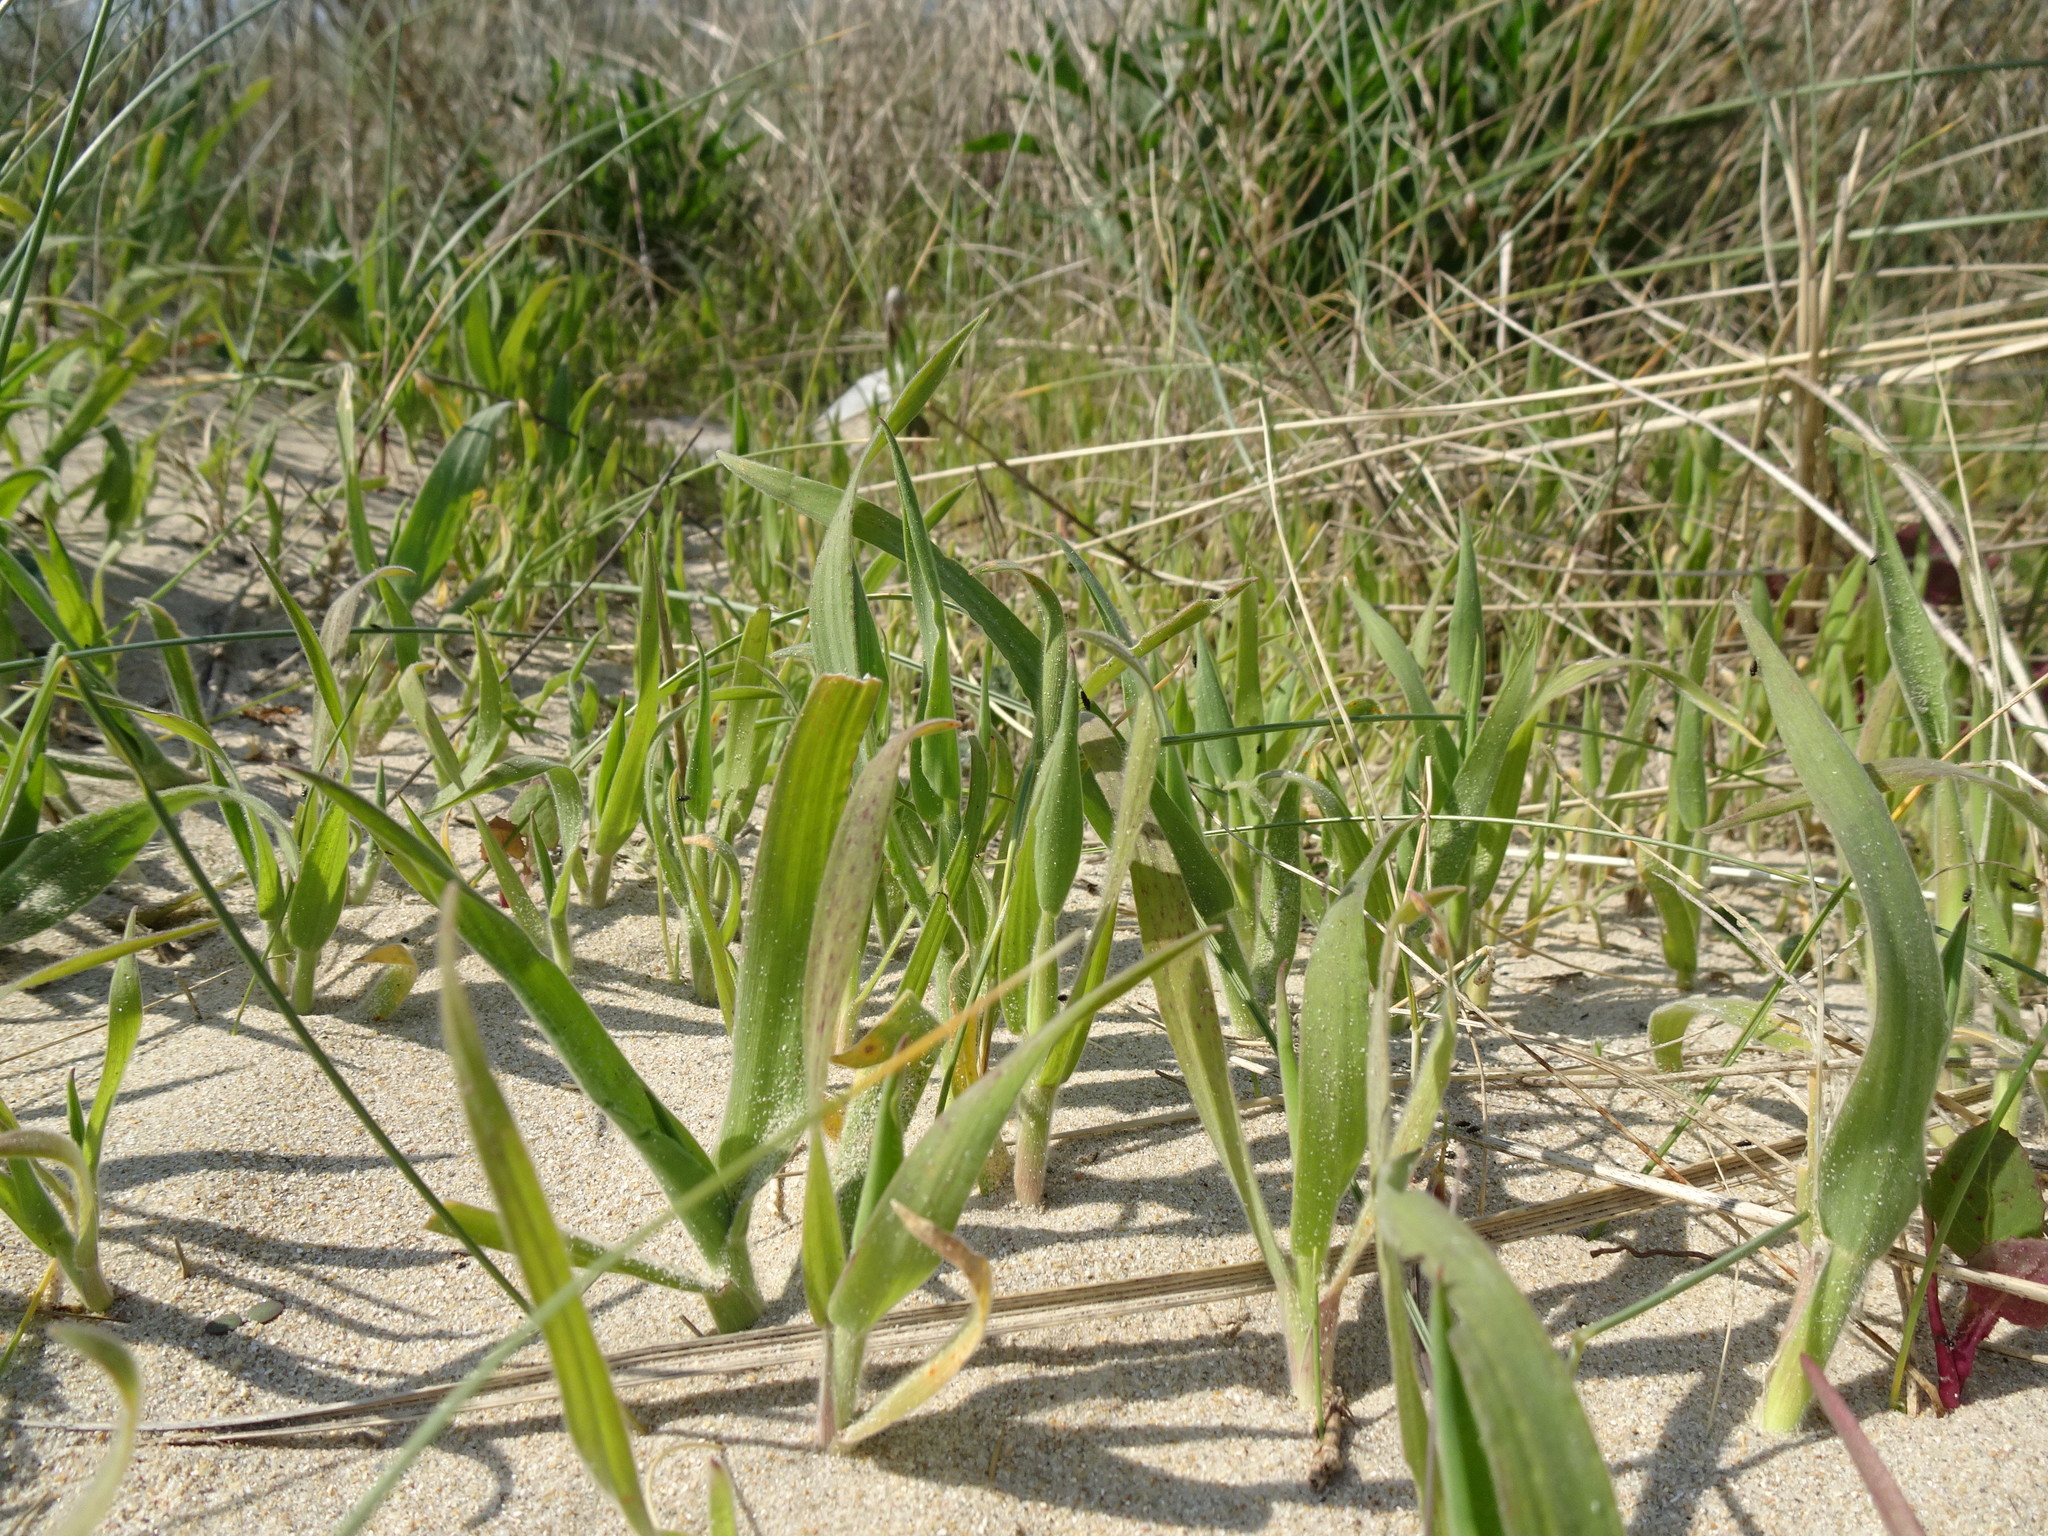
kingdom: Plantae
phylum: Tracheophyta
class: Liliopsida
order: Poales
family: Poaceae
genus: Lagurus
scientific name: Lagurus ovatus
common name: Hare's-tail
